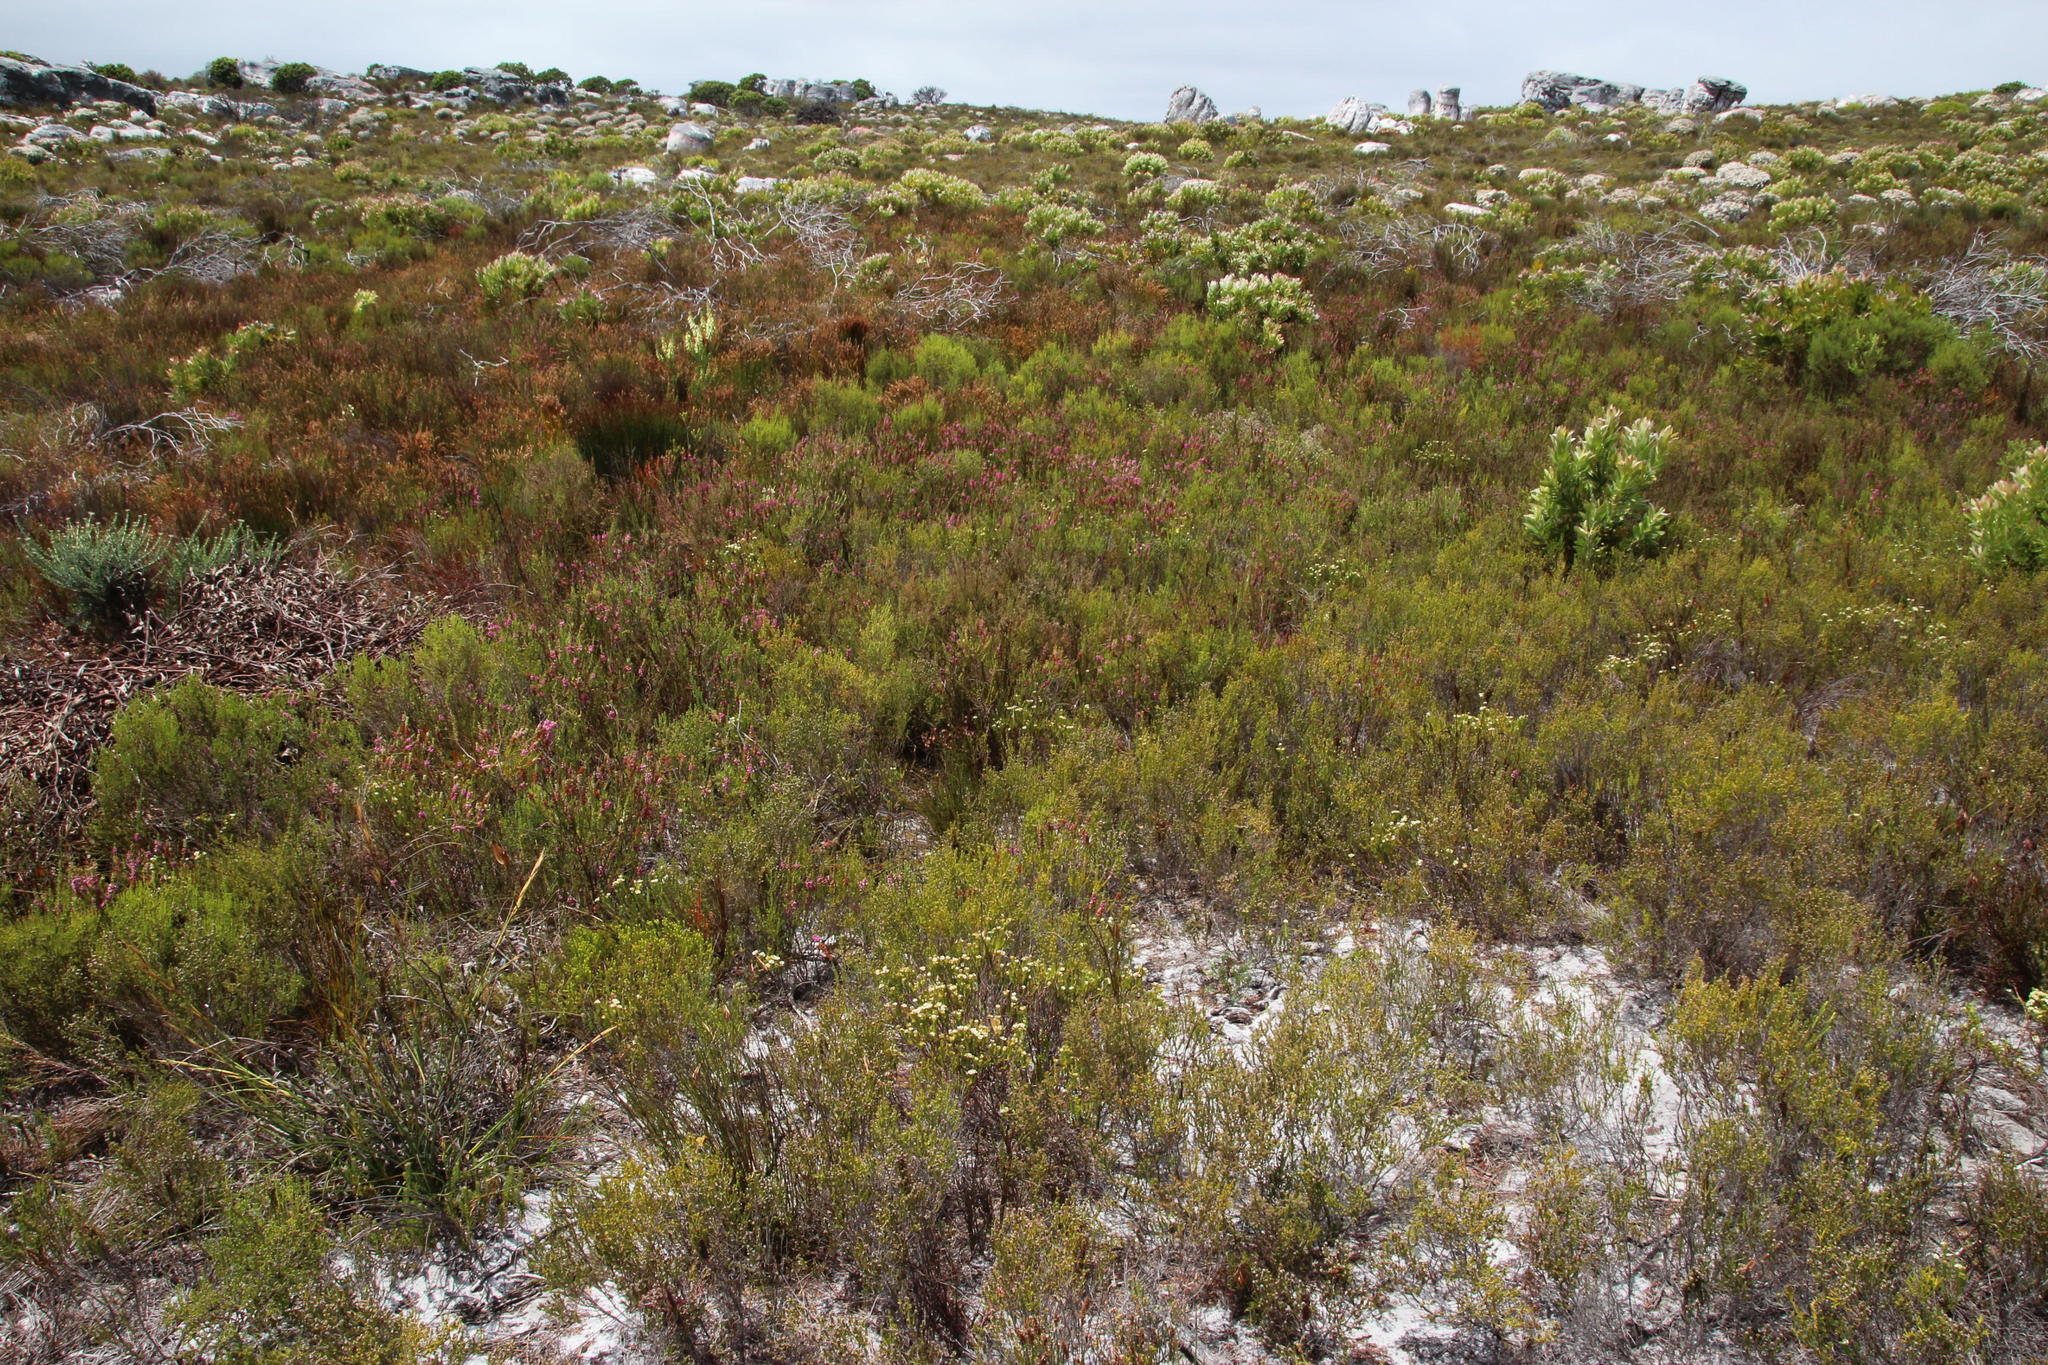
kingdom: Plantae
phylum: Tracheophyta
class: Magnoliopsida
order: Sapindales
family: Rutaceae
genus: Diosma
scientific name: Diosma oppositifolia
